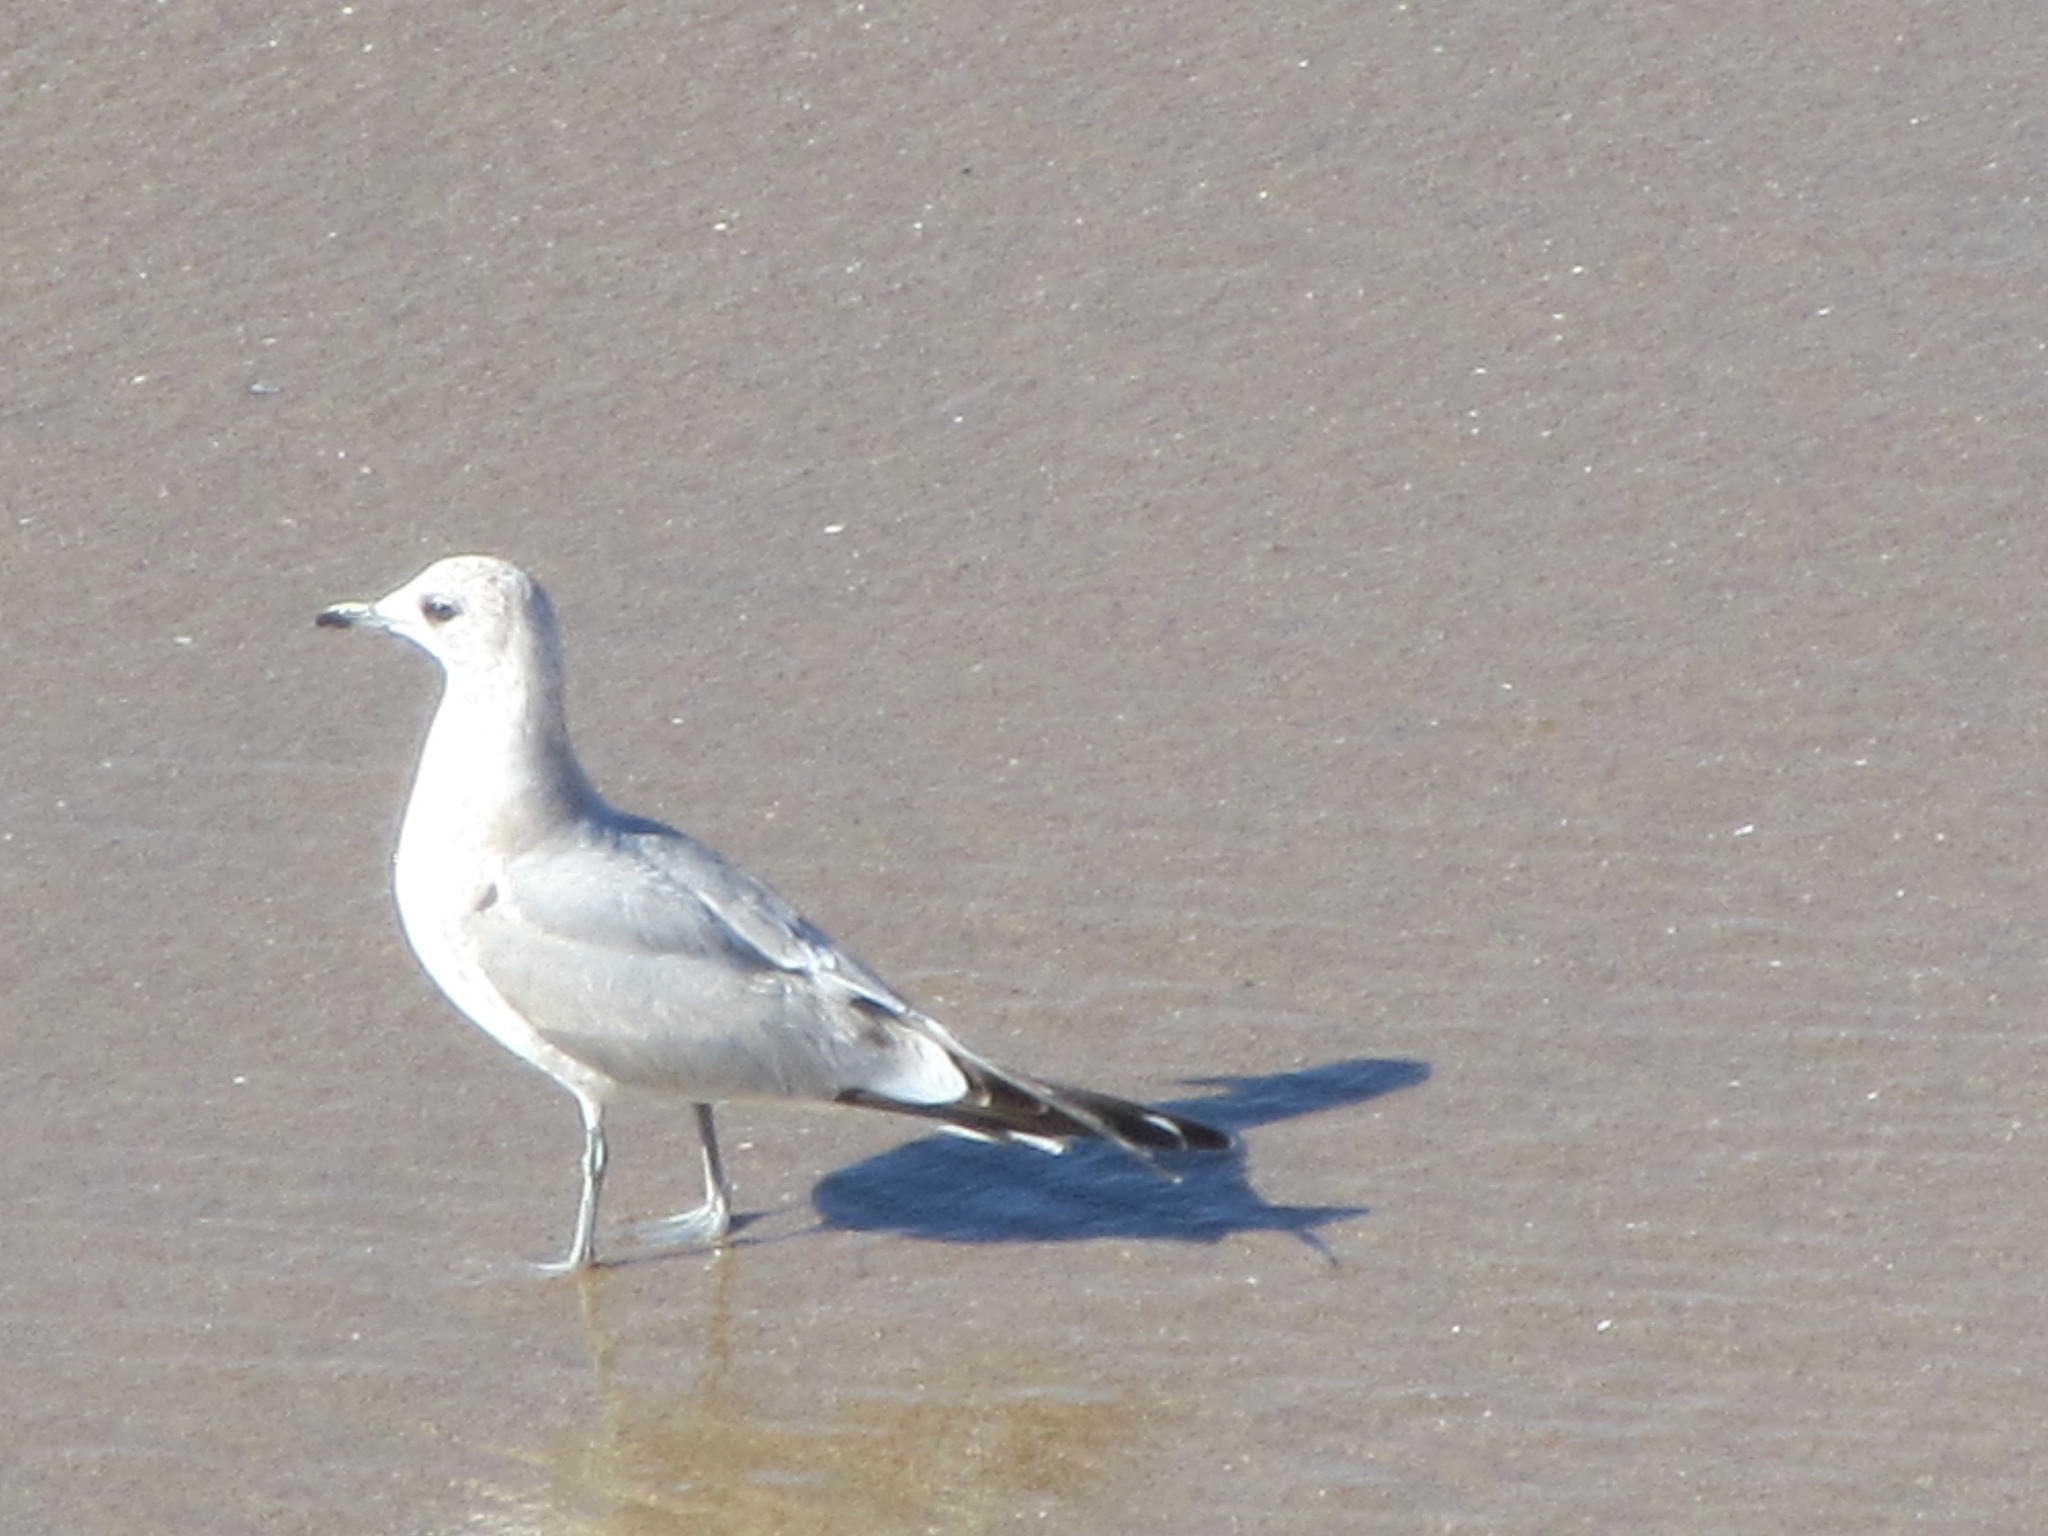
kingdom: Animalia
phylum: Chordata
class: Aves
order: Charadriiformes
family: Laridae
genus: Larus
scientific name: Larus brachyrhynchus
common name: Short-billed gull
